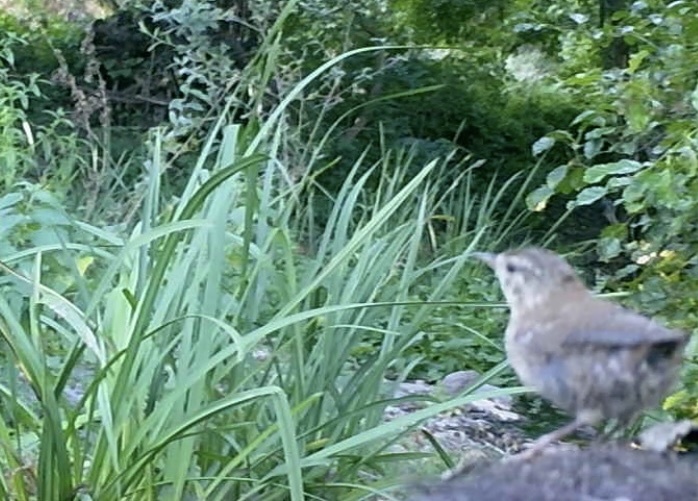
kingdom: Animalia
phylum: Chordata
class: Aves
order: Passeriformes
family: Troglodytidae
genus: Troglodytes
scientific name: Troglodytes troglodytes
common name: Eurasian wren
